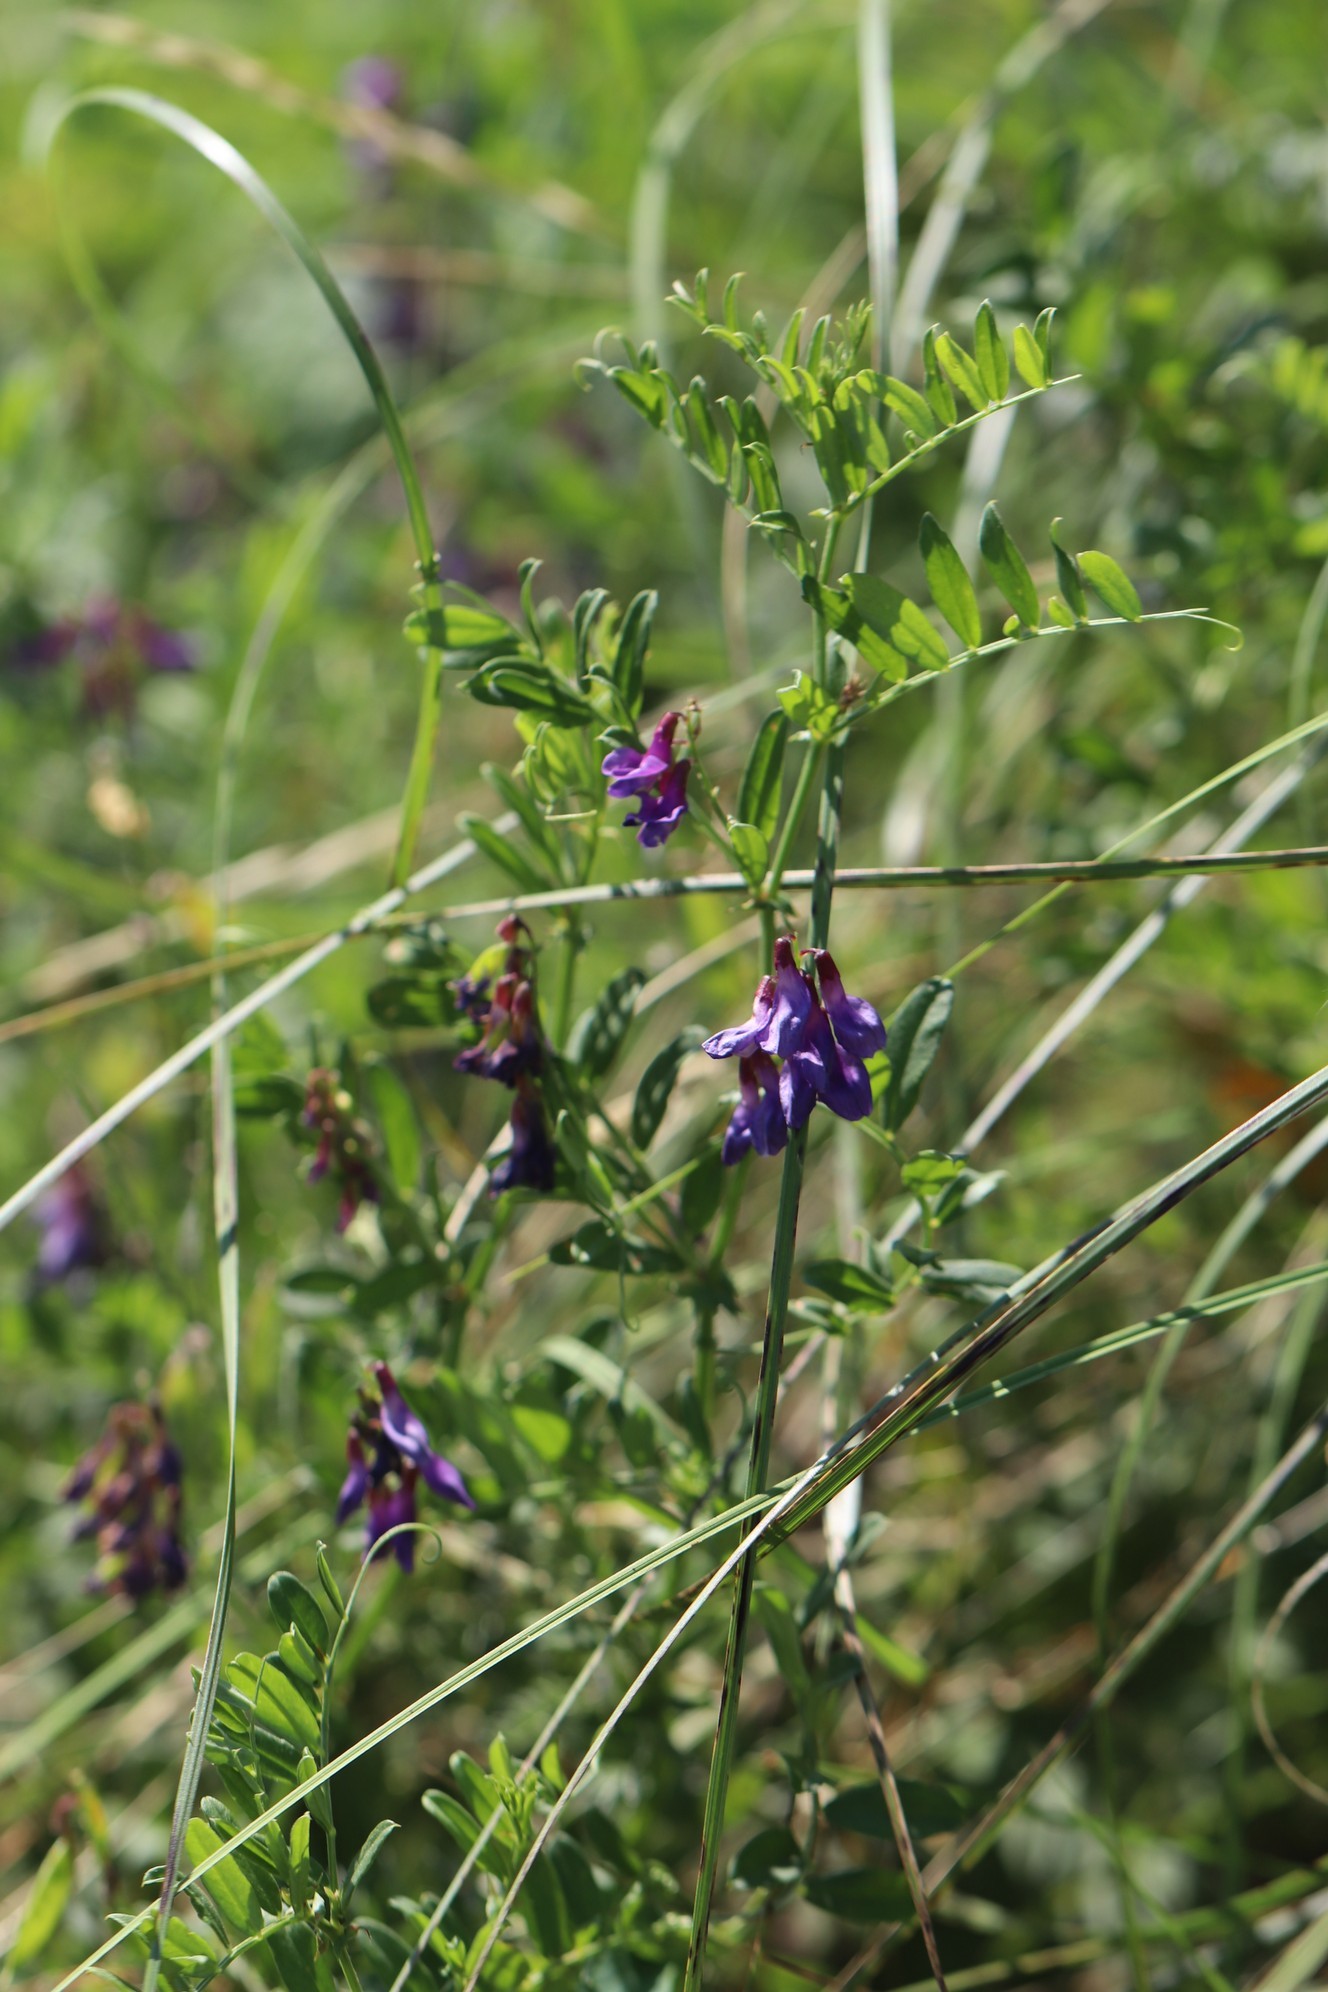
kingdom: Plantae
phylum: Tracheophyta
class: Magnoliopsida
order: Fabales
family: Fabaceae
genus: Vicia
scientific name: Vicia amoena
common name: Cheder ebs
